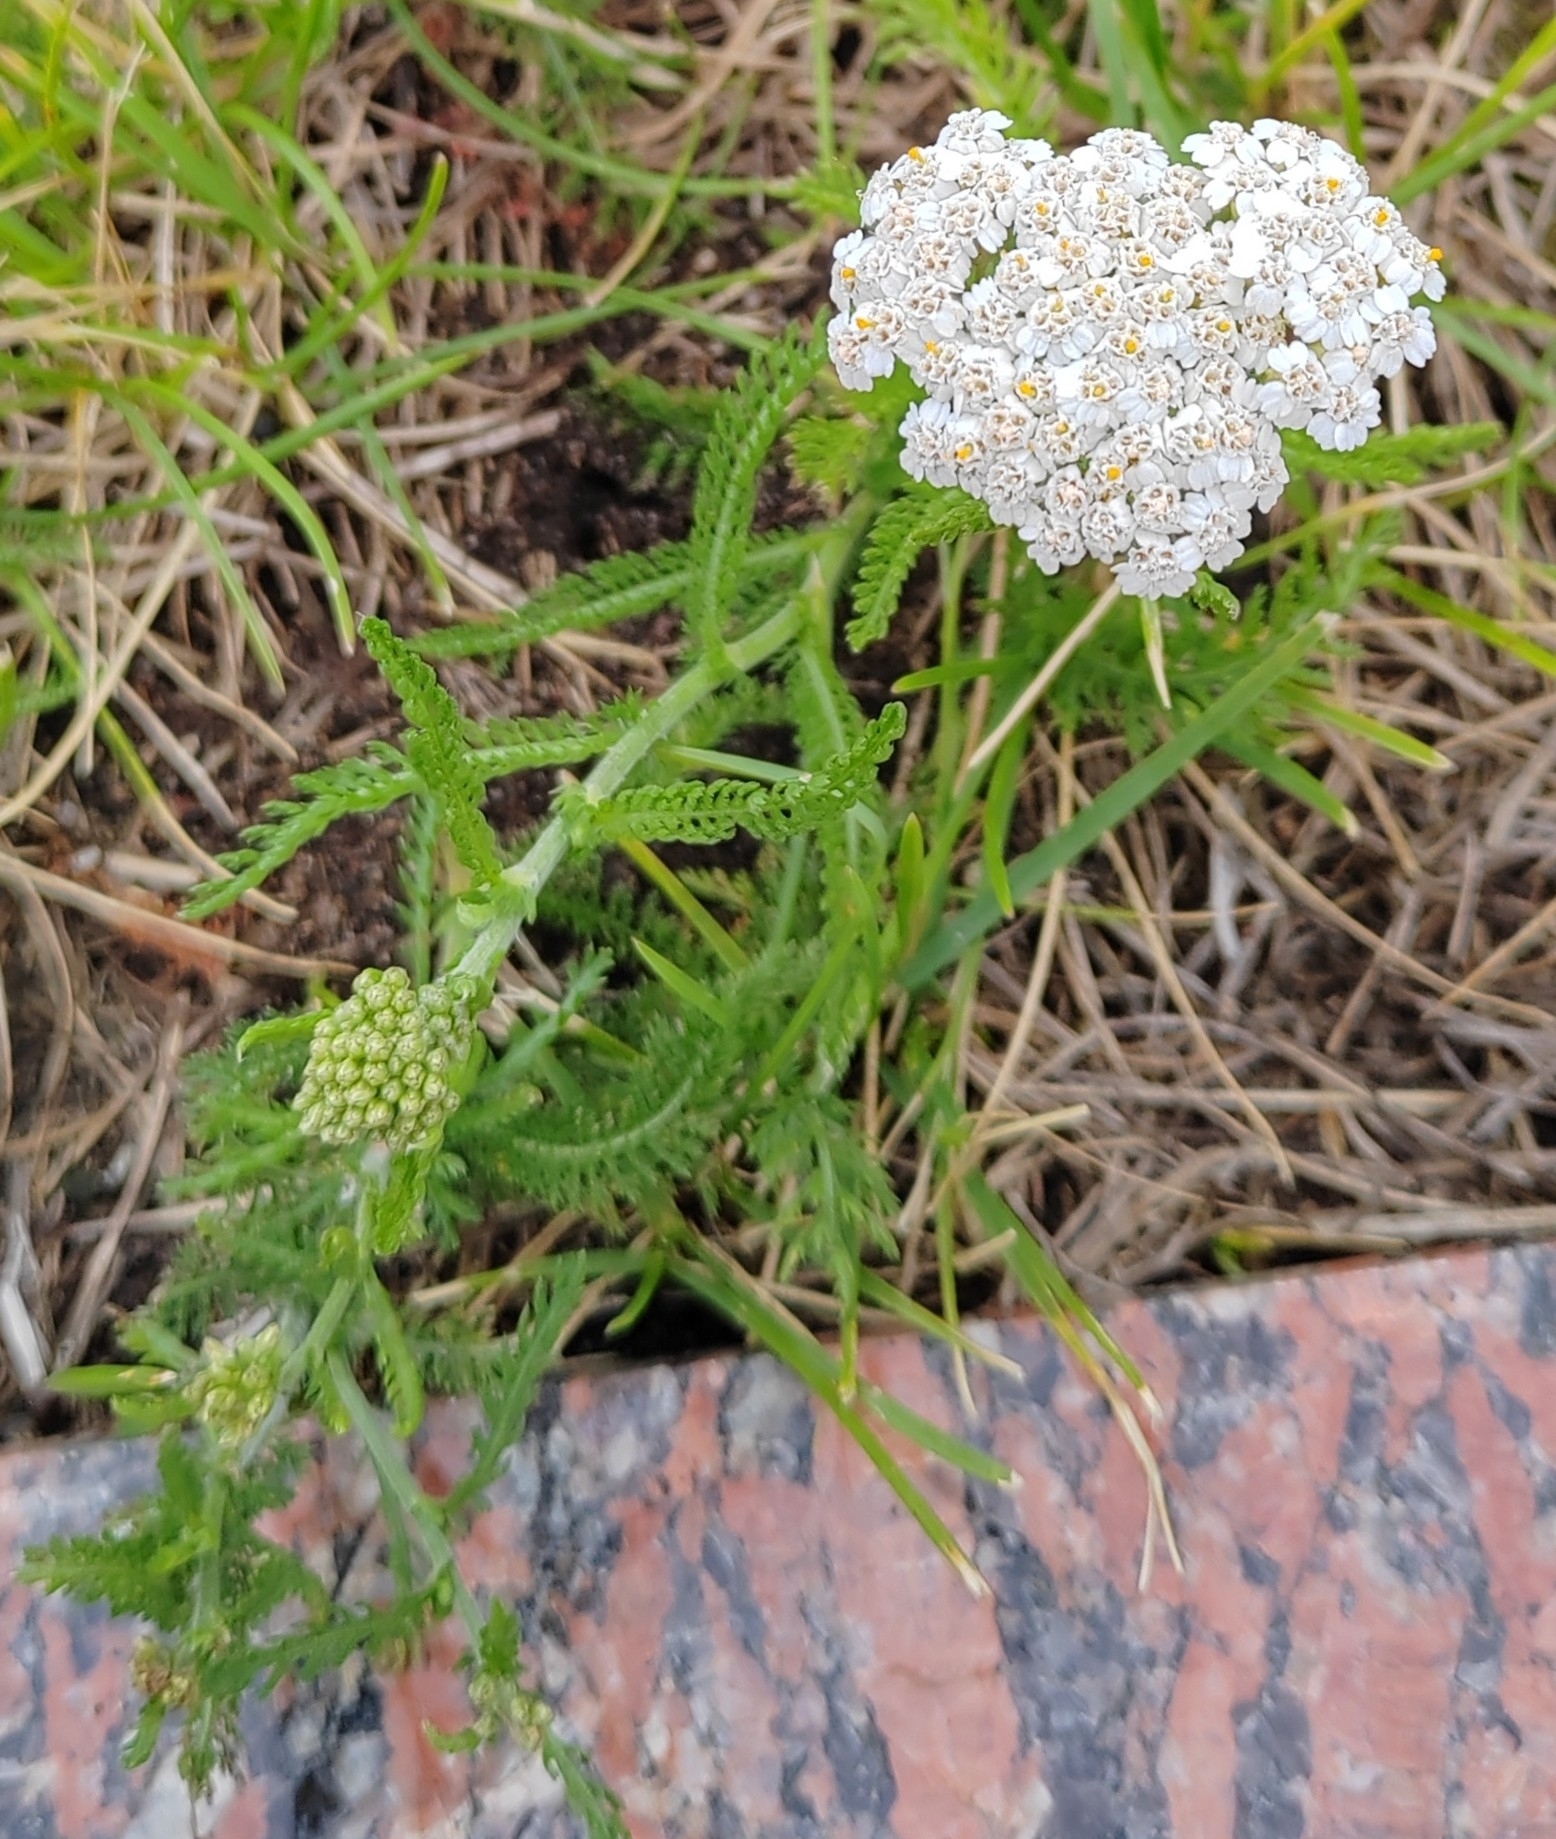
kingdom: Plantae
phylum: Tracheophyta
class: Magnoliopsida
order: Asterales
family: Asteraceae
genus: Achillea
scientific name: Achillea millefolium
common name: Yarrow
